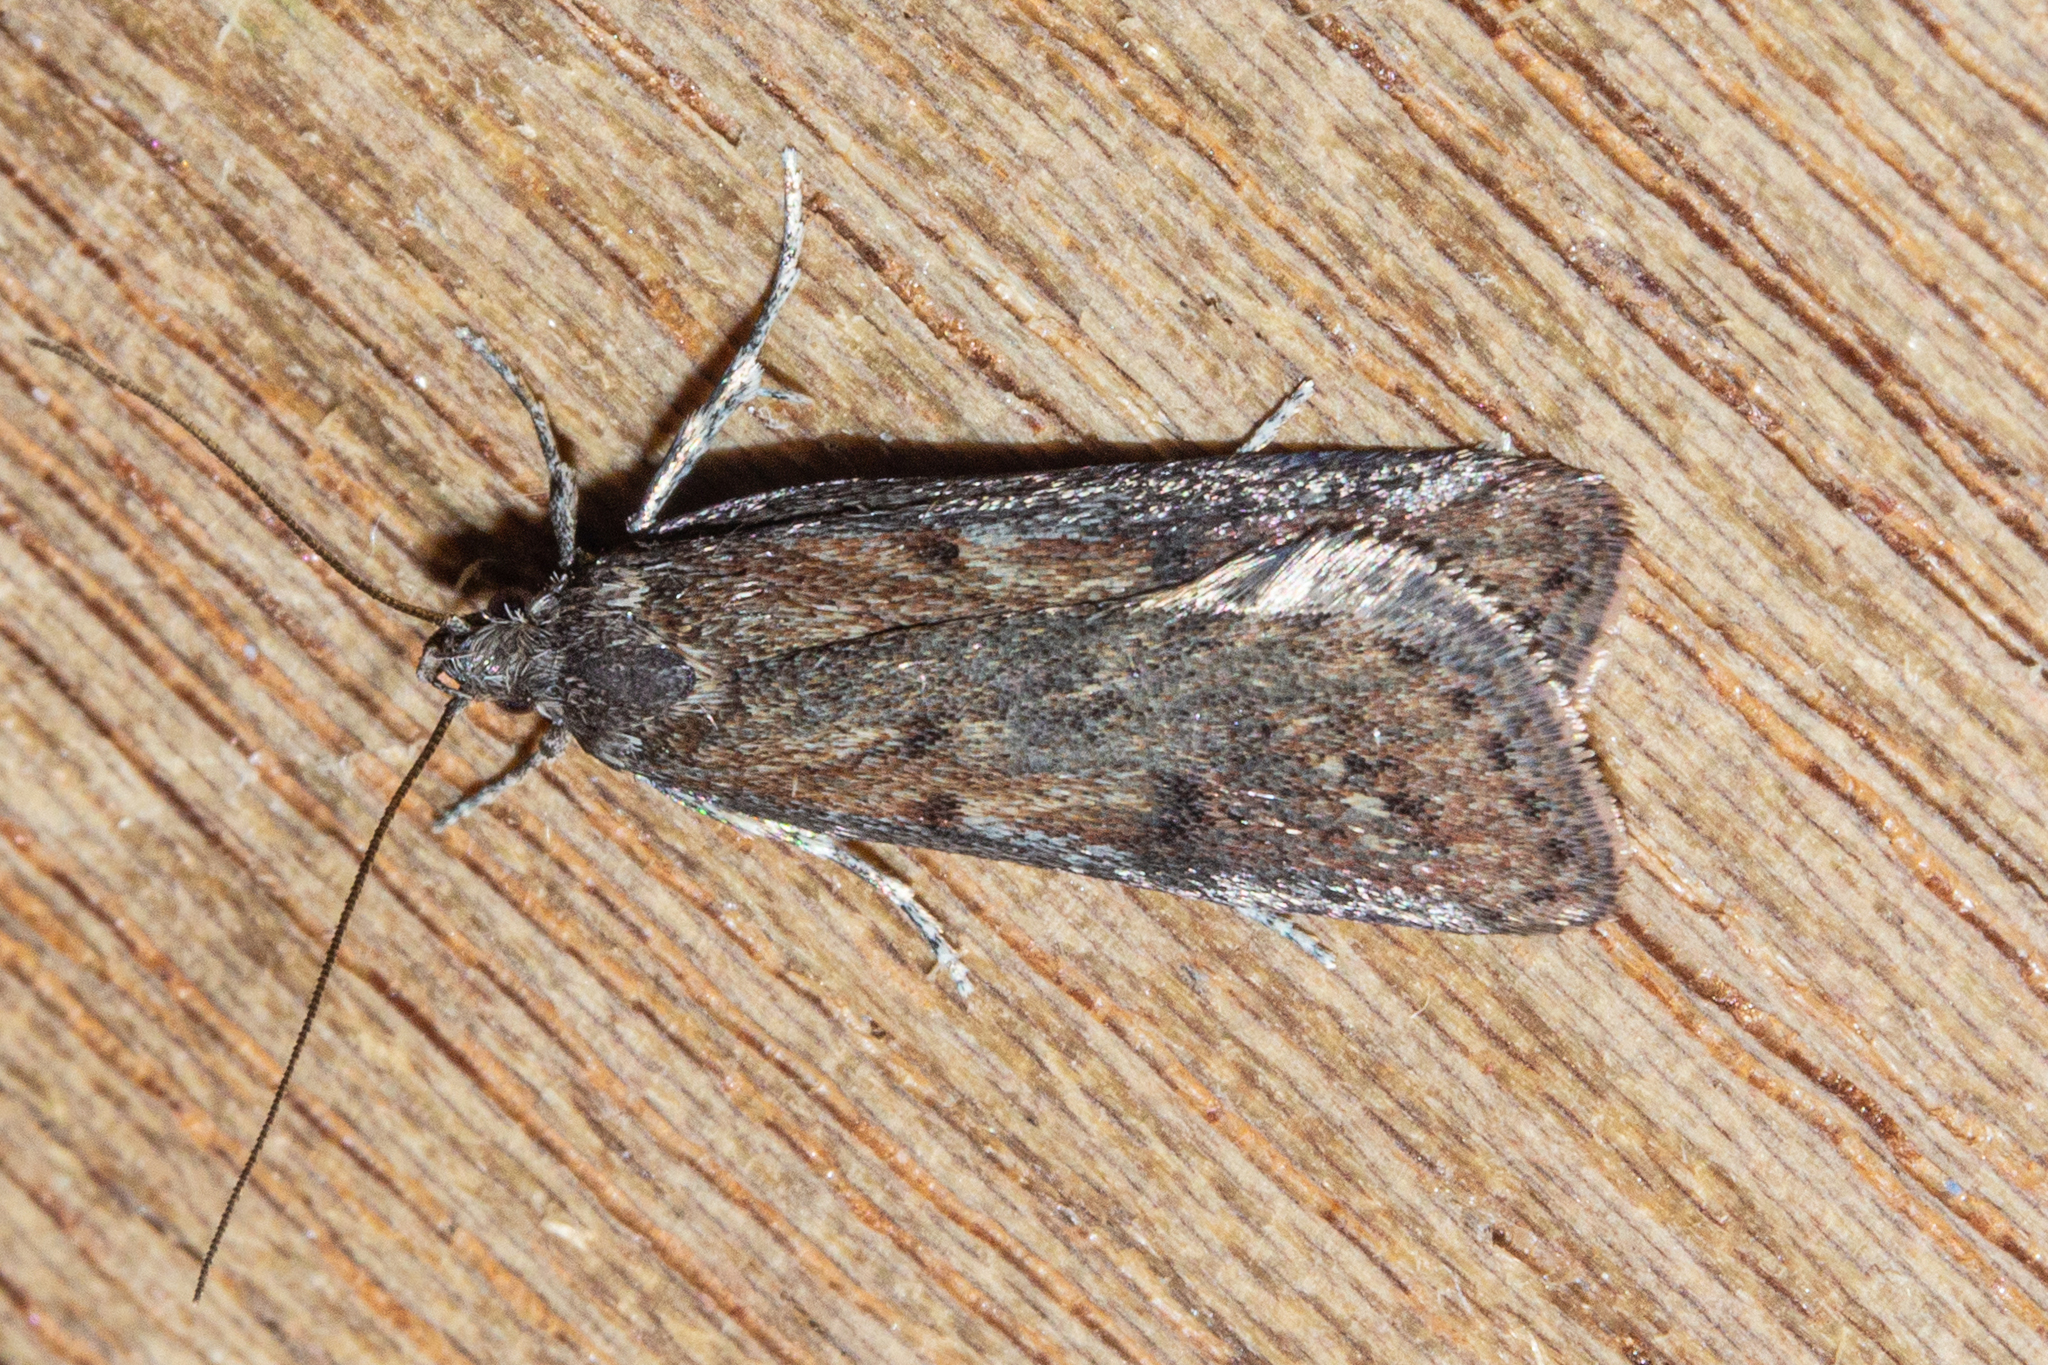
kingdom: Animalia
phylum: Arthropoda
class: Insecta
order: Lepidoptera
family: Depressariidae
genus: Phaeosaces
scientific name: Phaeosaces apocrypta
